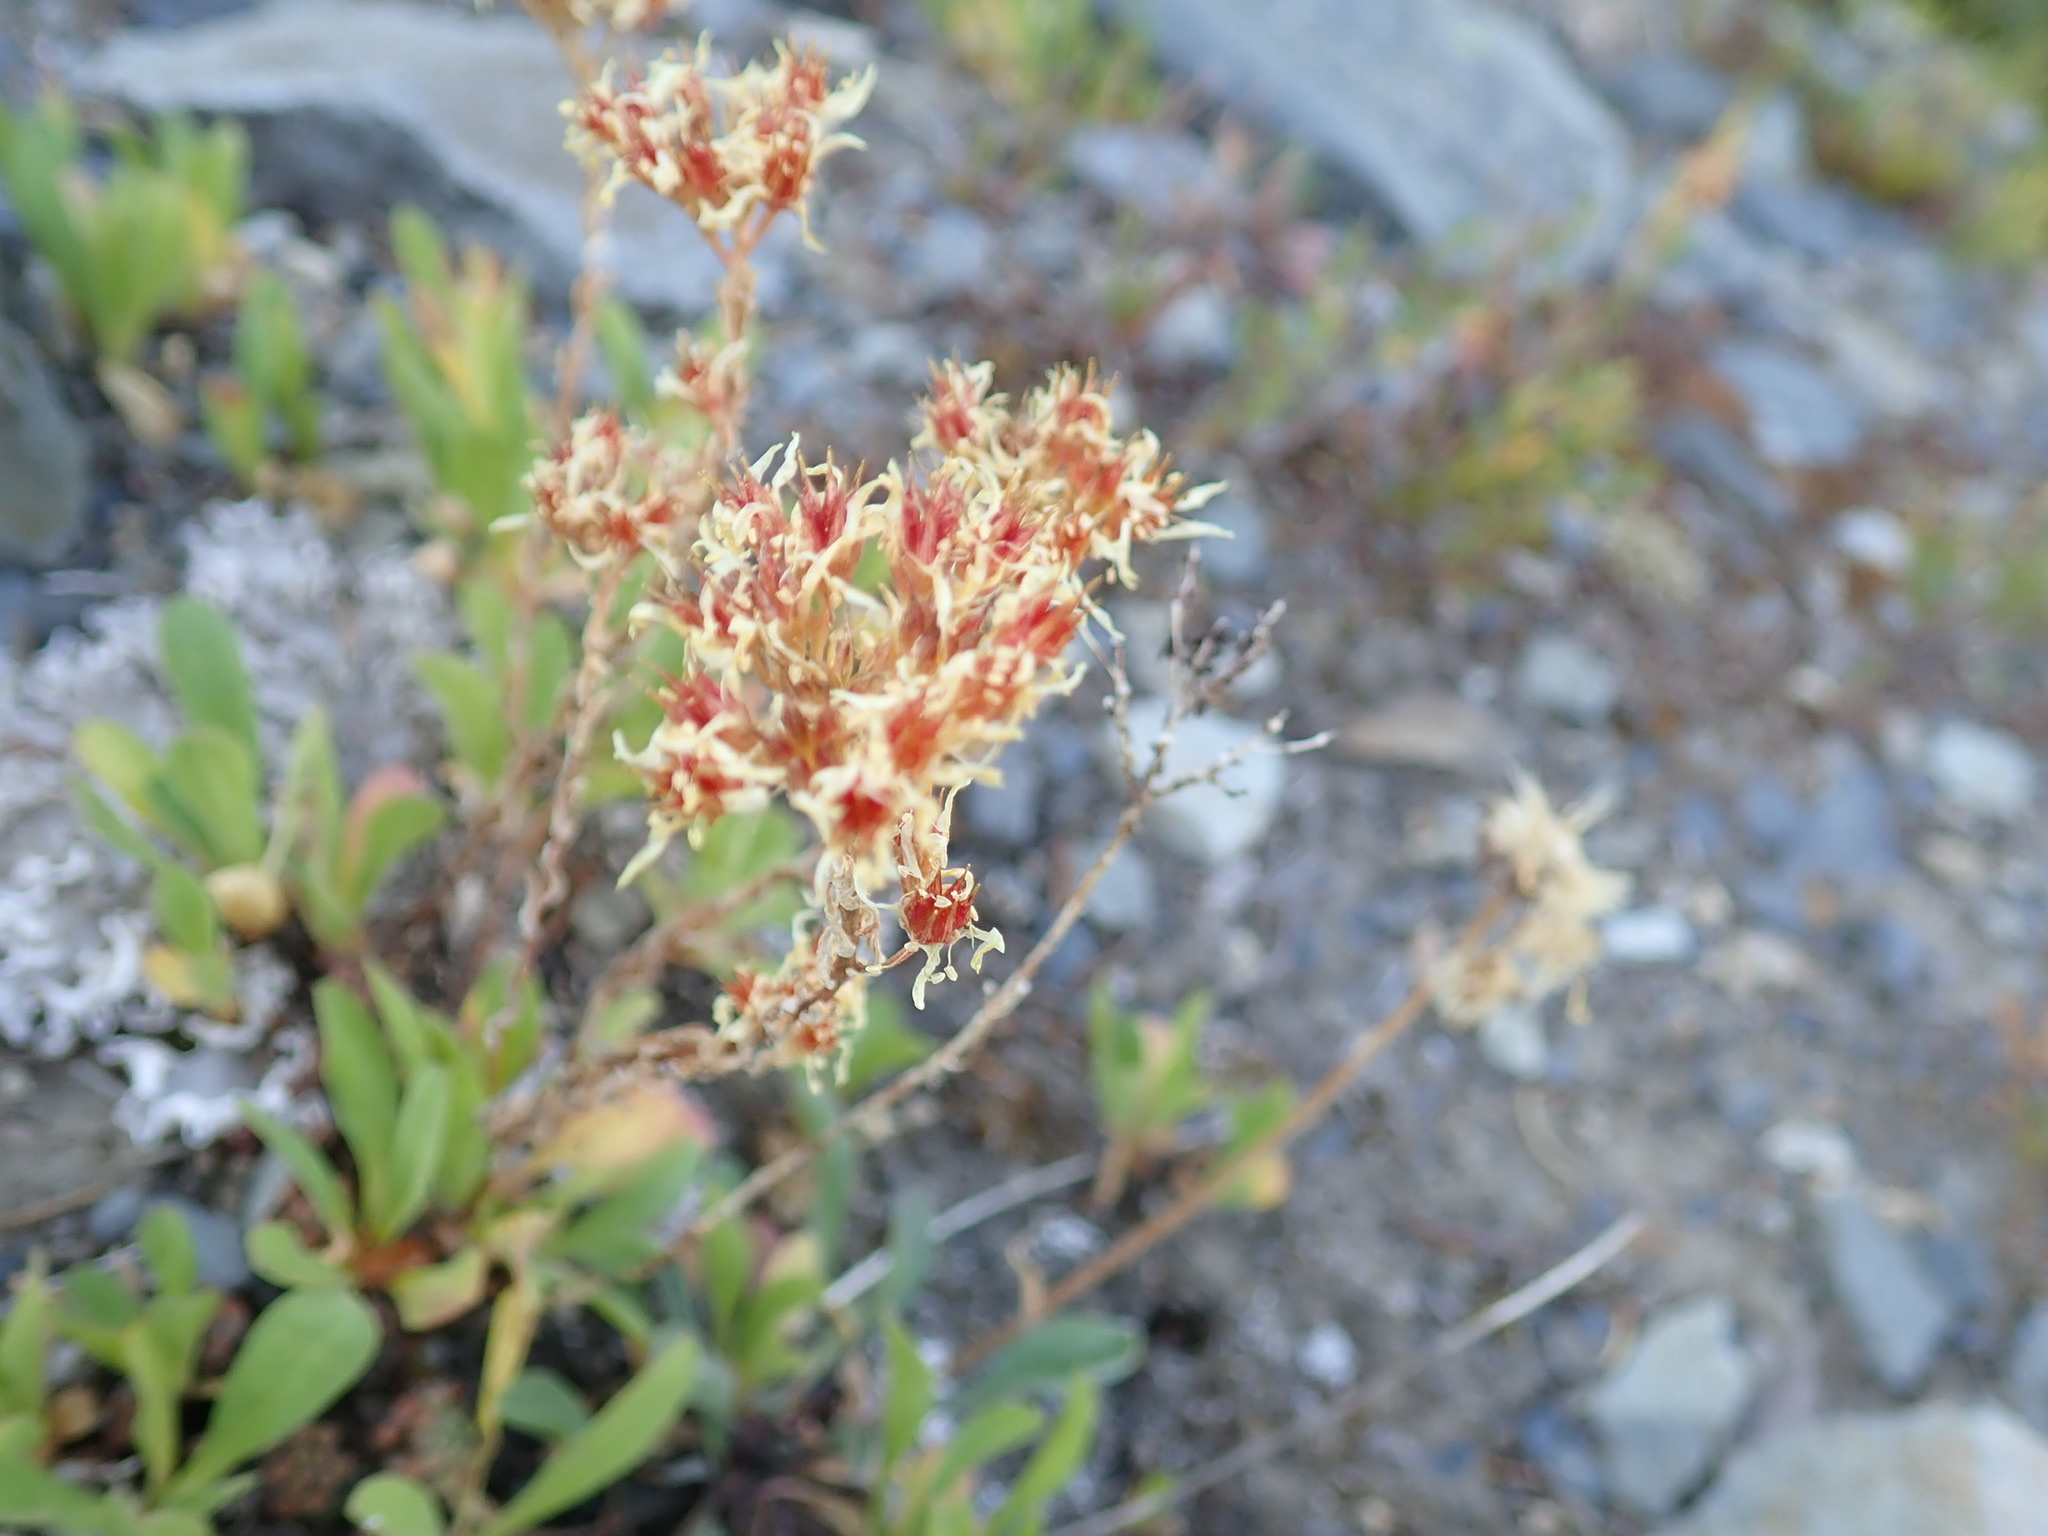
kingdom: Plantae
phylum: Tracheophyta
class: Magnoliopsida
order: Saxifragales
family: Crassulaceae
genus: Sedum
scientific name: Sedum lanceolatum
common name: Common stonecrop
